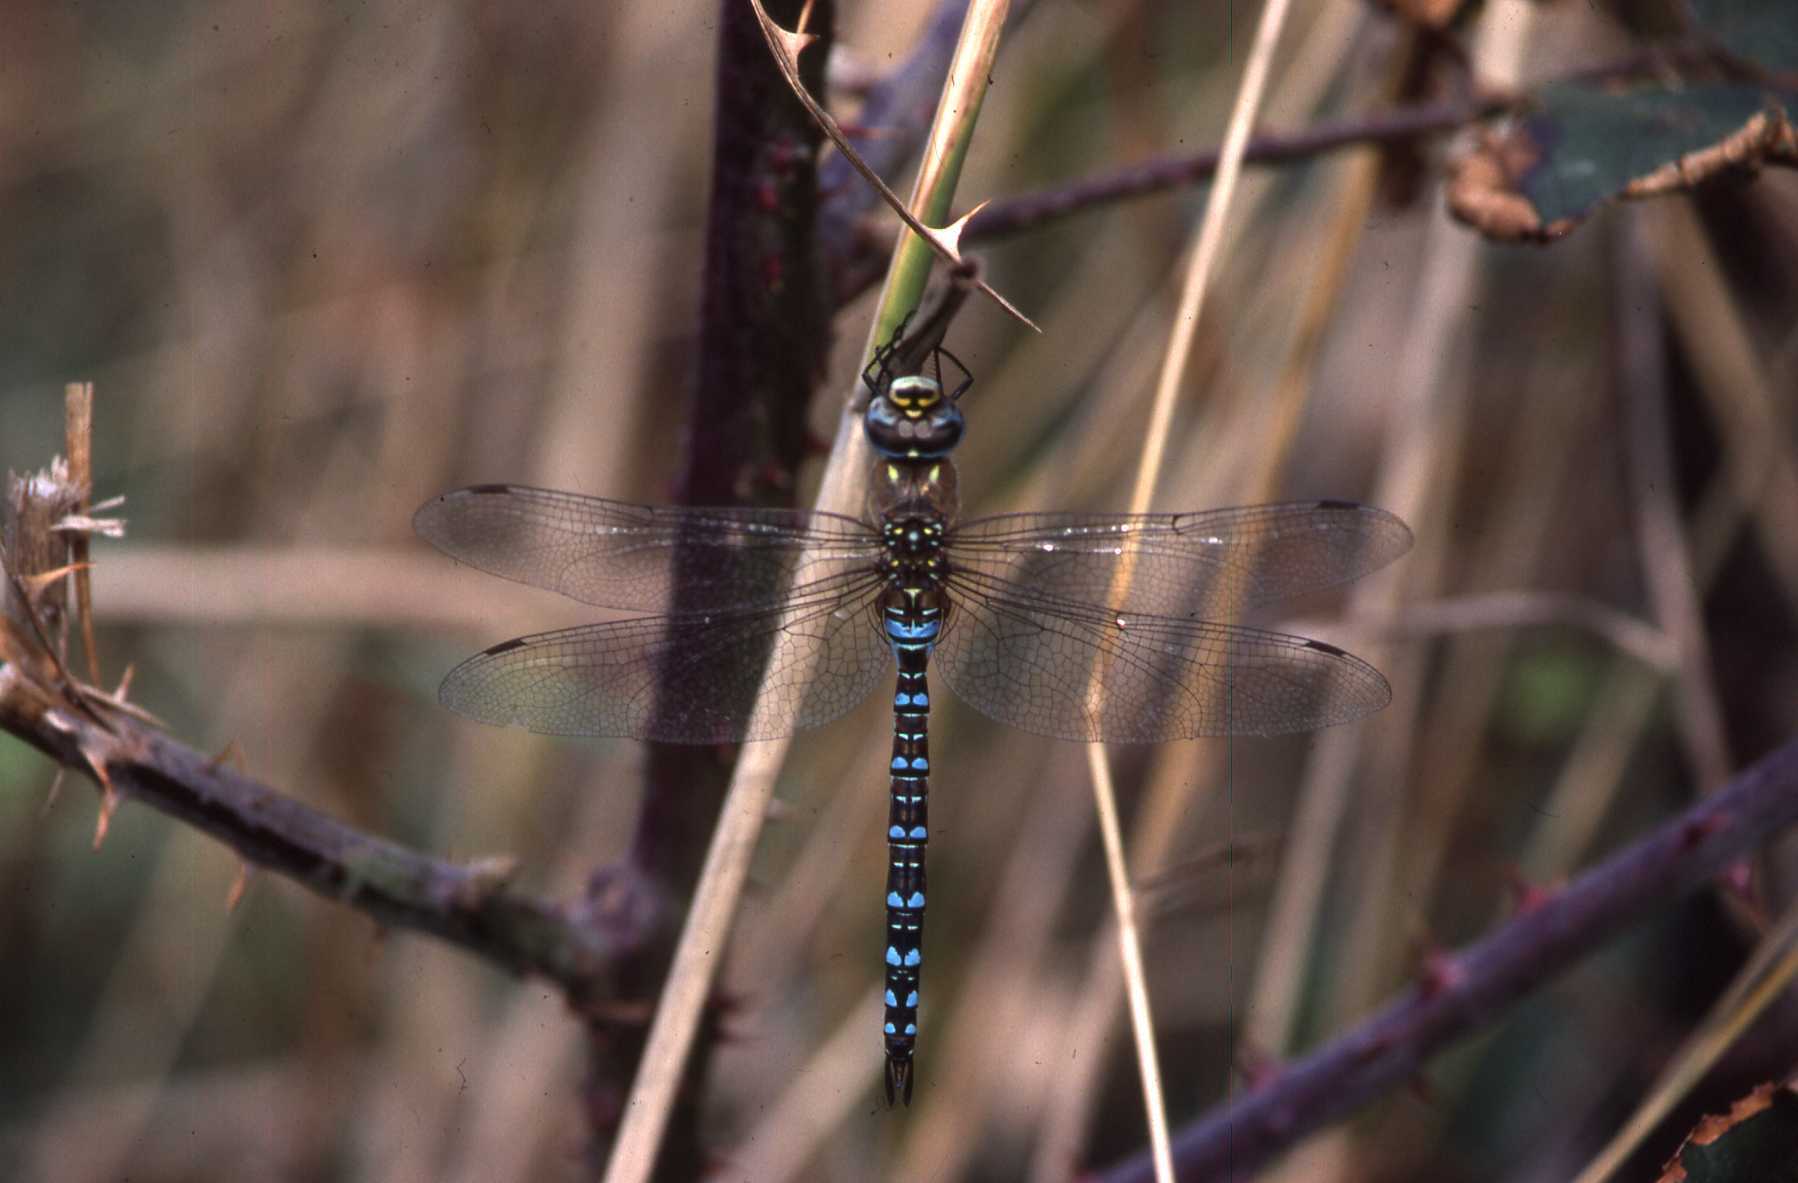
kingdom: Animalia
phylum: Arthropoda
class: Insecta
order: Odonata
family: Aeshnidae
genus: Aeshna
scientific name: Aeshna mixta
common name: Migrant hawker
